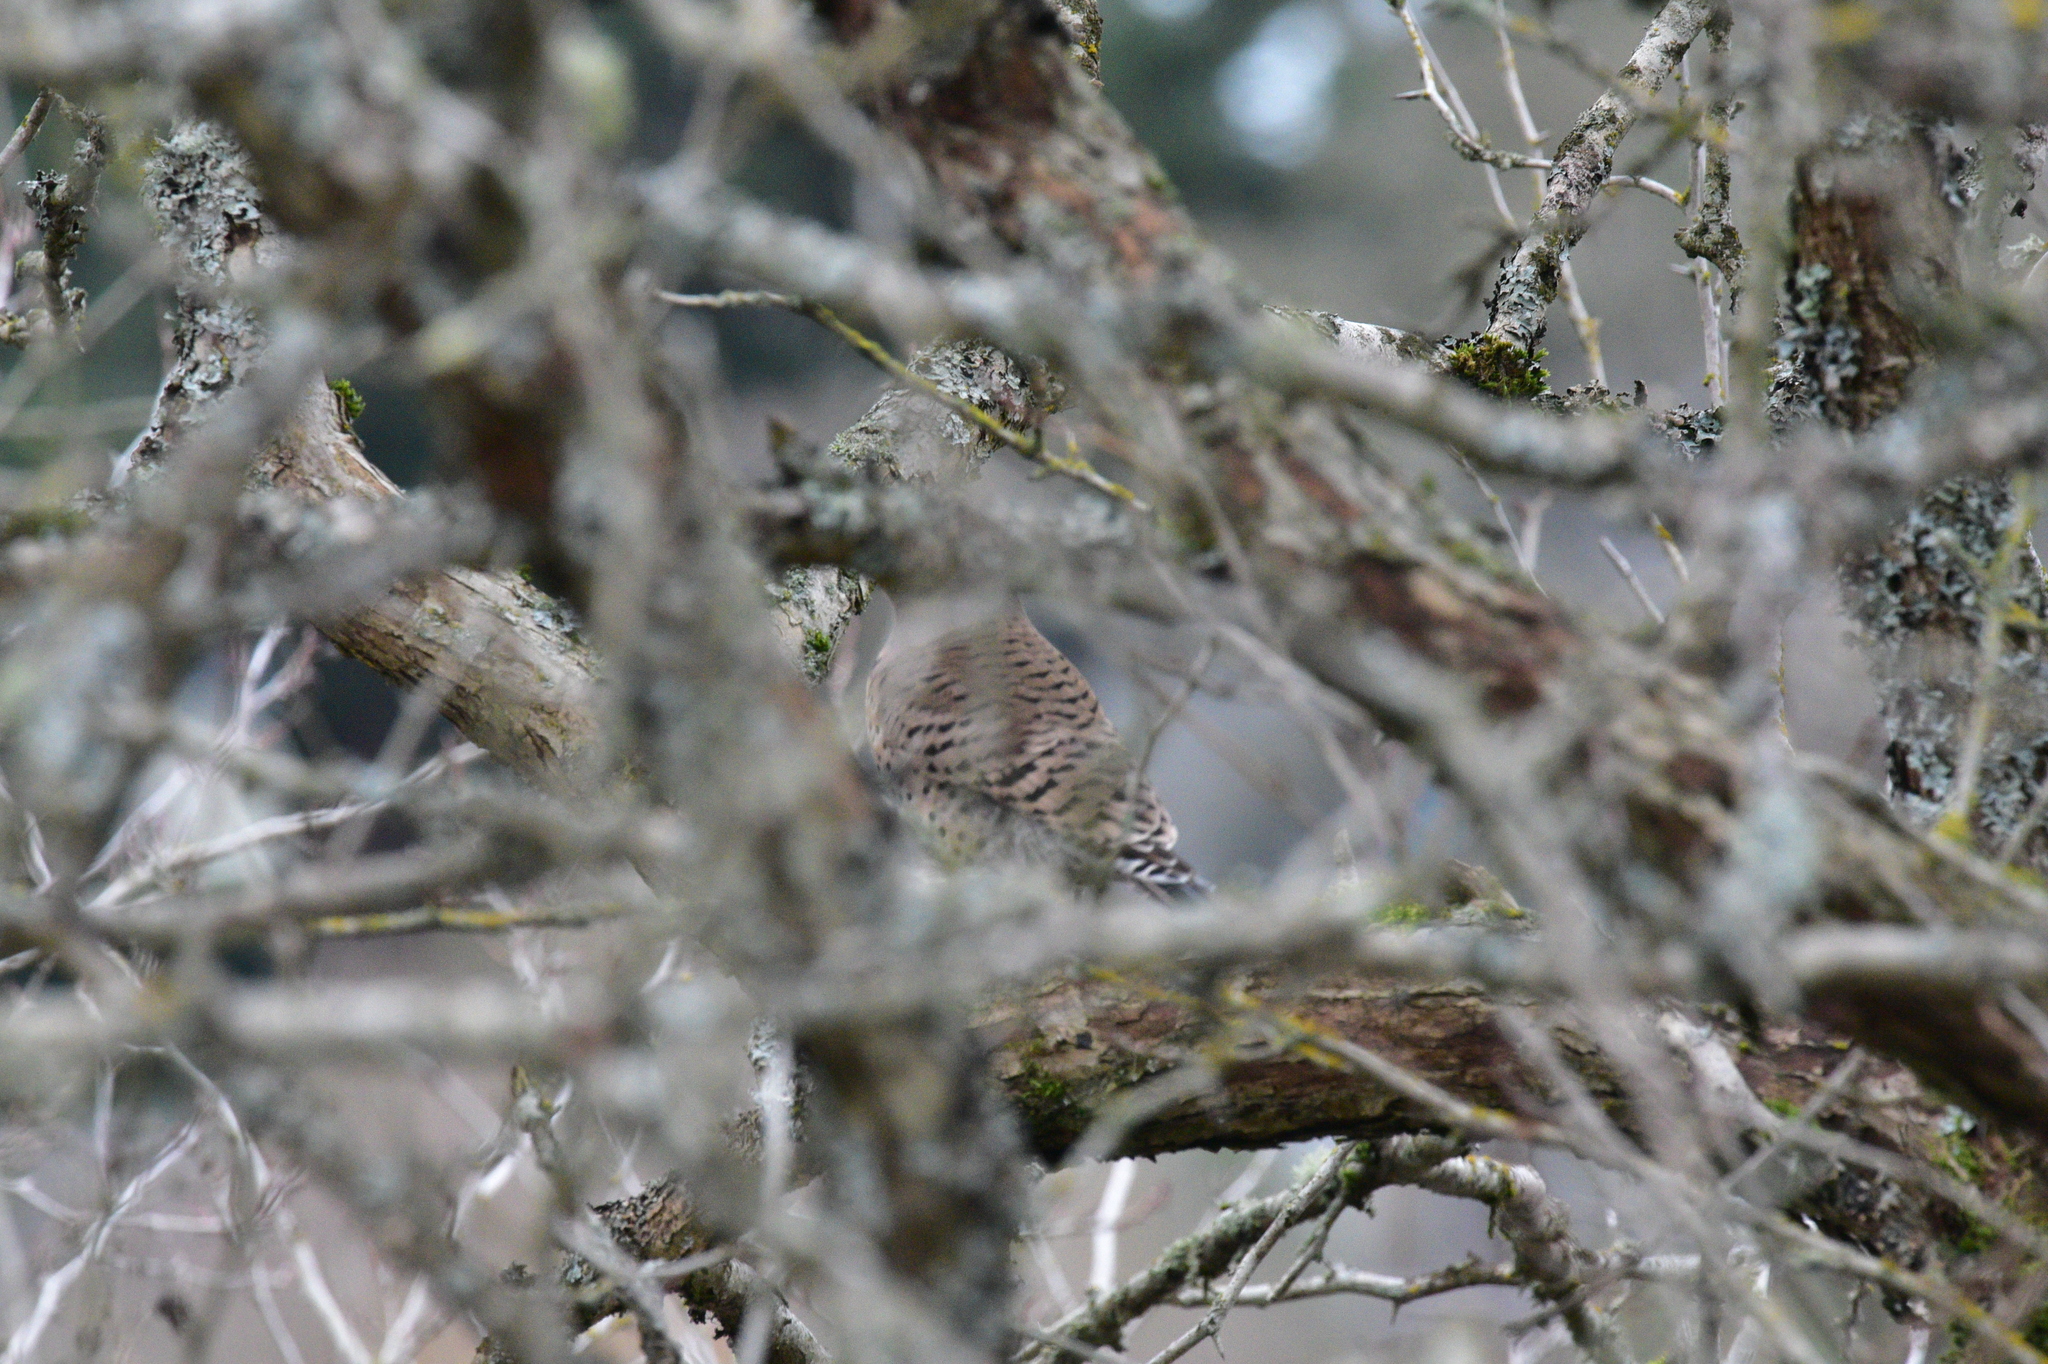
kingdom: Animalia
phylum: Chordata
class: Aves
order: Piciformes
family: Picidae
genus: Colaptes
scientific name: Colaptes auratus
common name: Northern flicker
